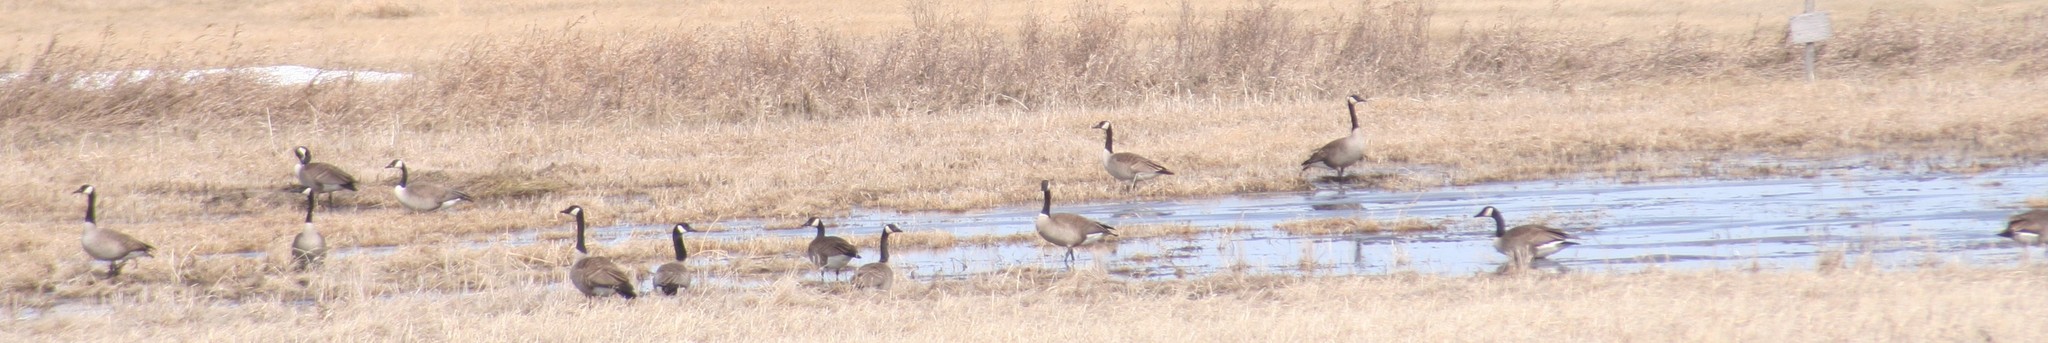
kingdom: Animalia
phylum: Chordata
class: Aves
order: Anseriformes
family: Anatidae
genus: Branta
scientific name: Branta canadensis
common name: Canada goose
